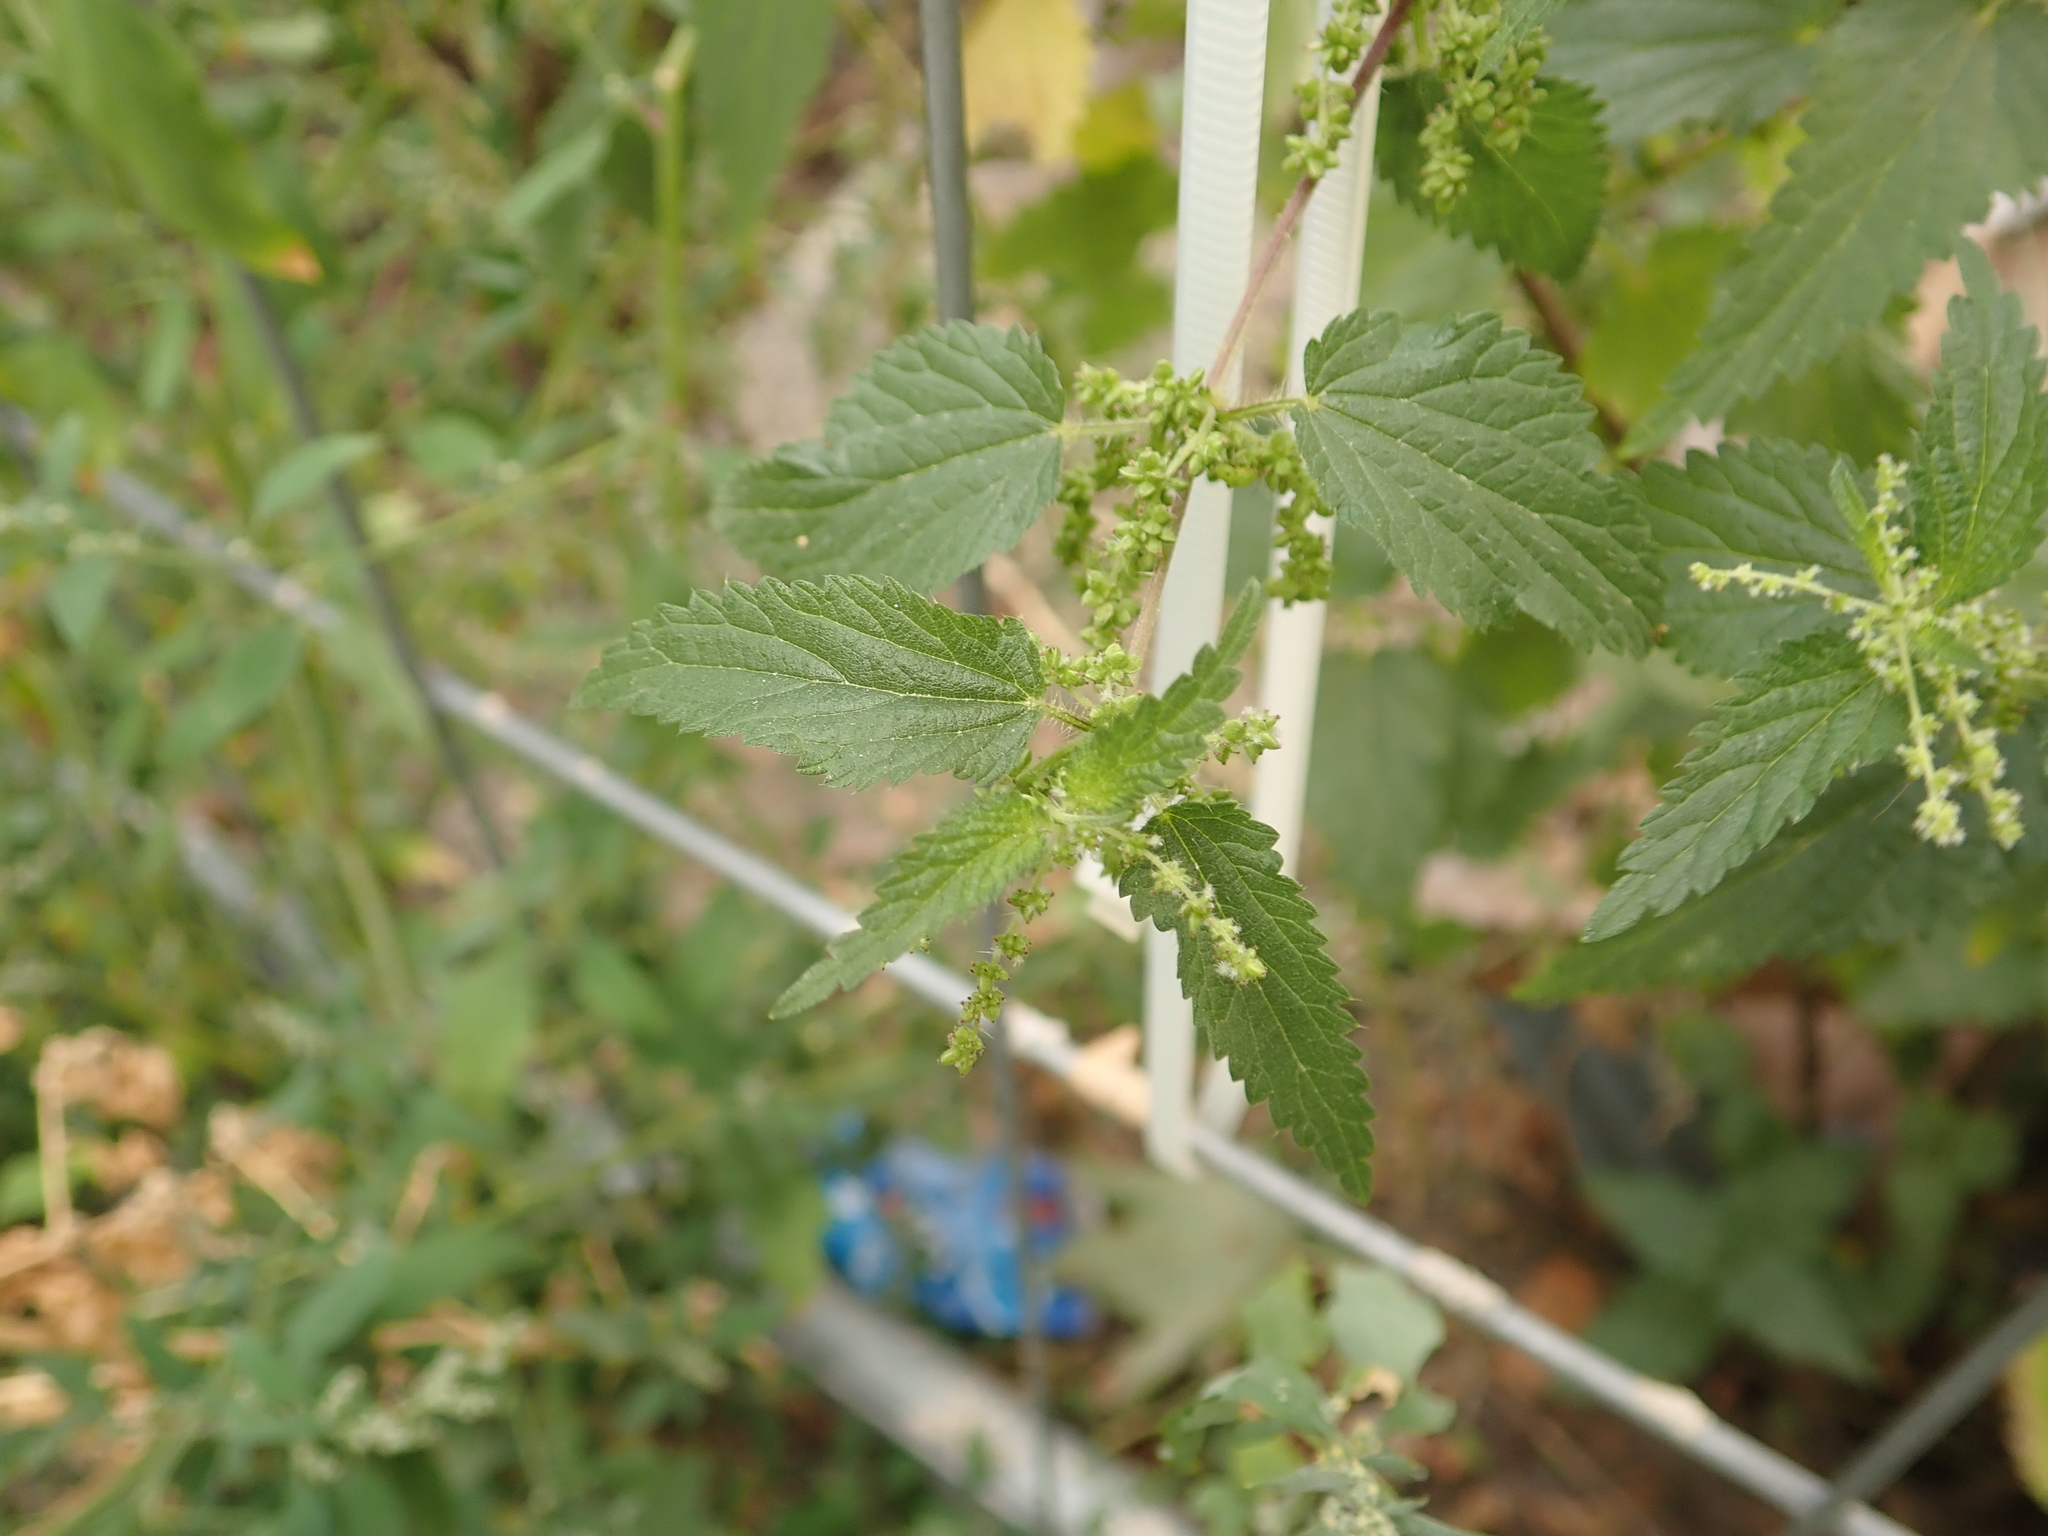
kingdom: Plantae
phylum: Tracheophyta
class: Magnoliopsida
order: Rosales
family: Urticaceae
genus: Urtica
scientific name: Urtica dioica
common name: Common nettle
